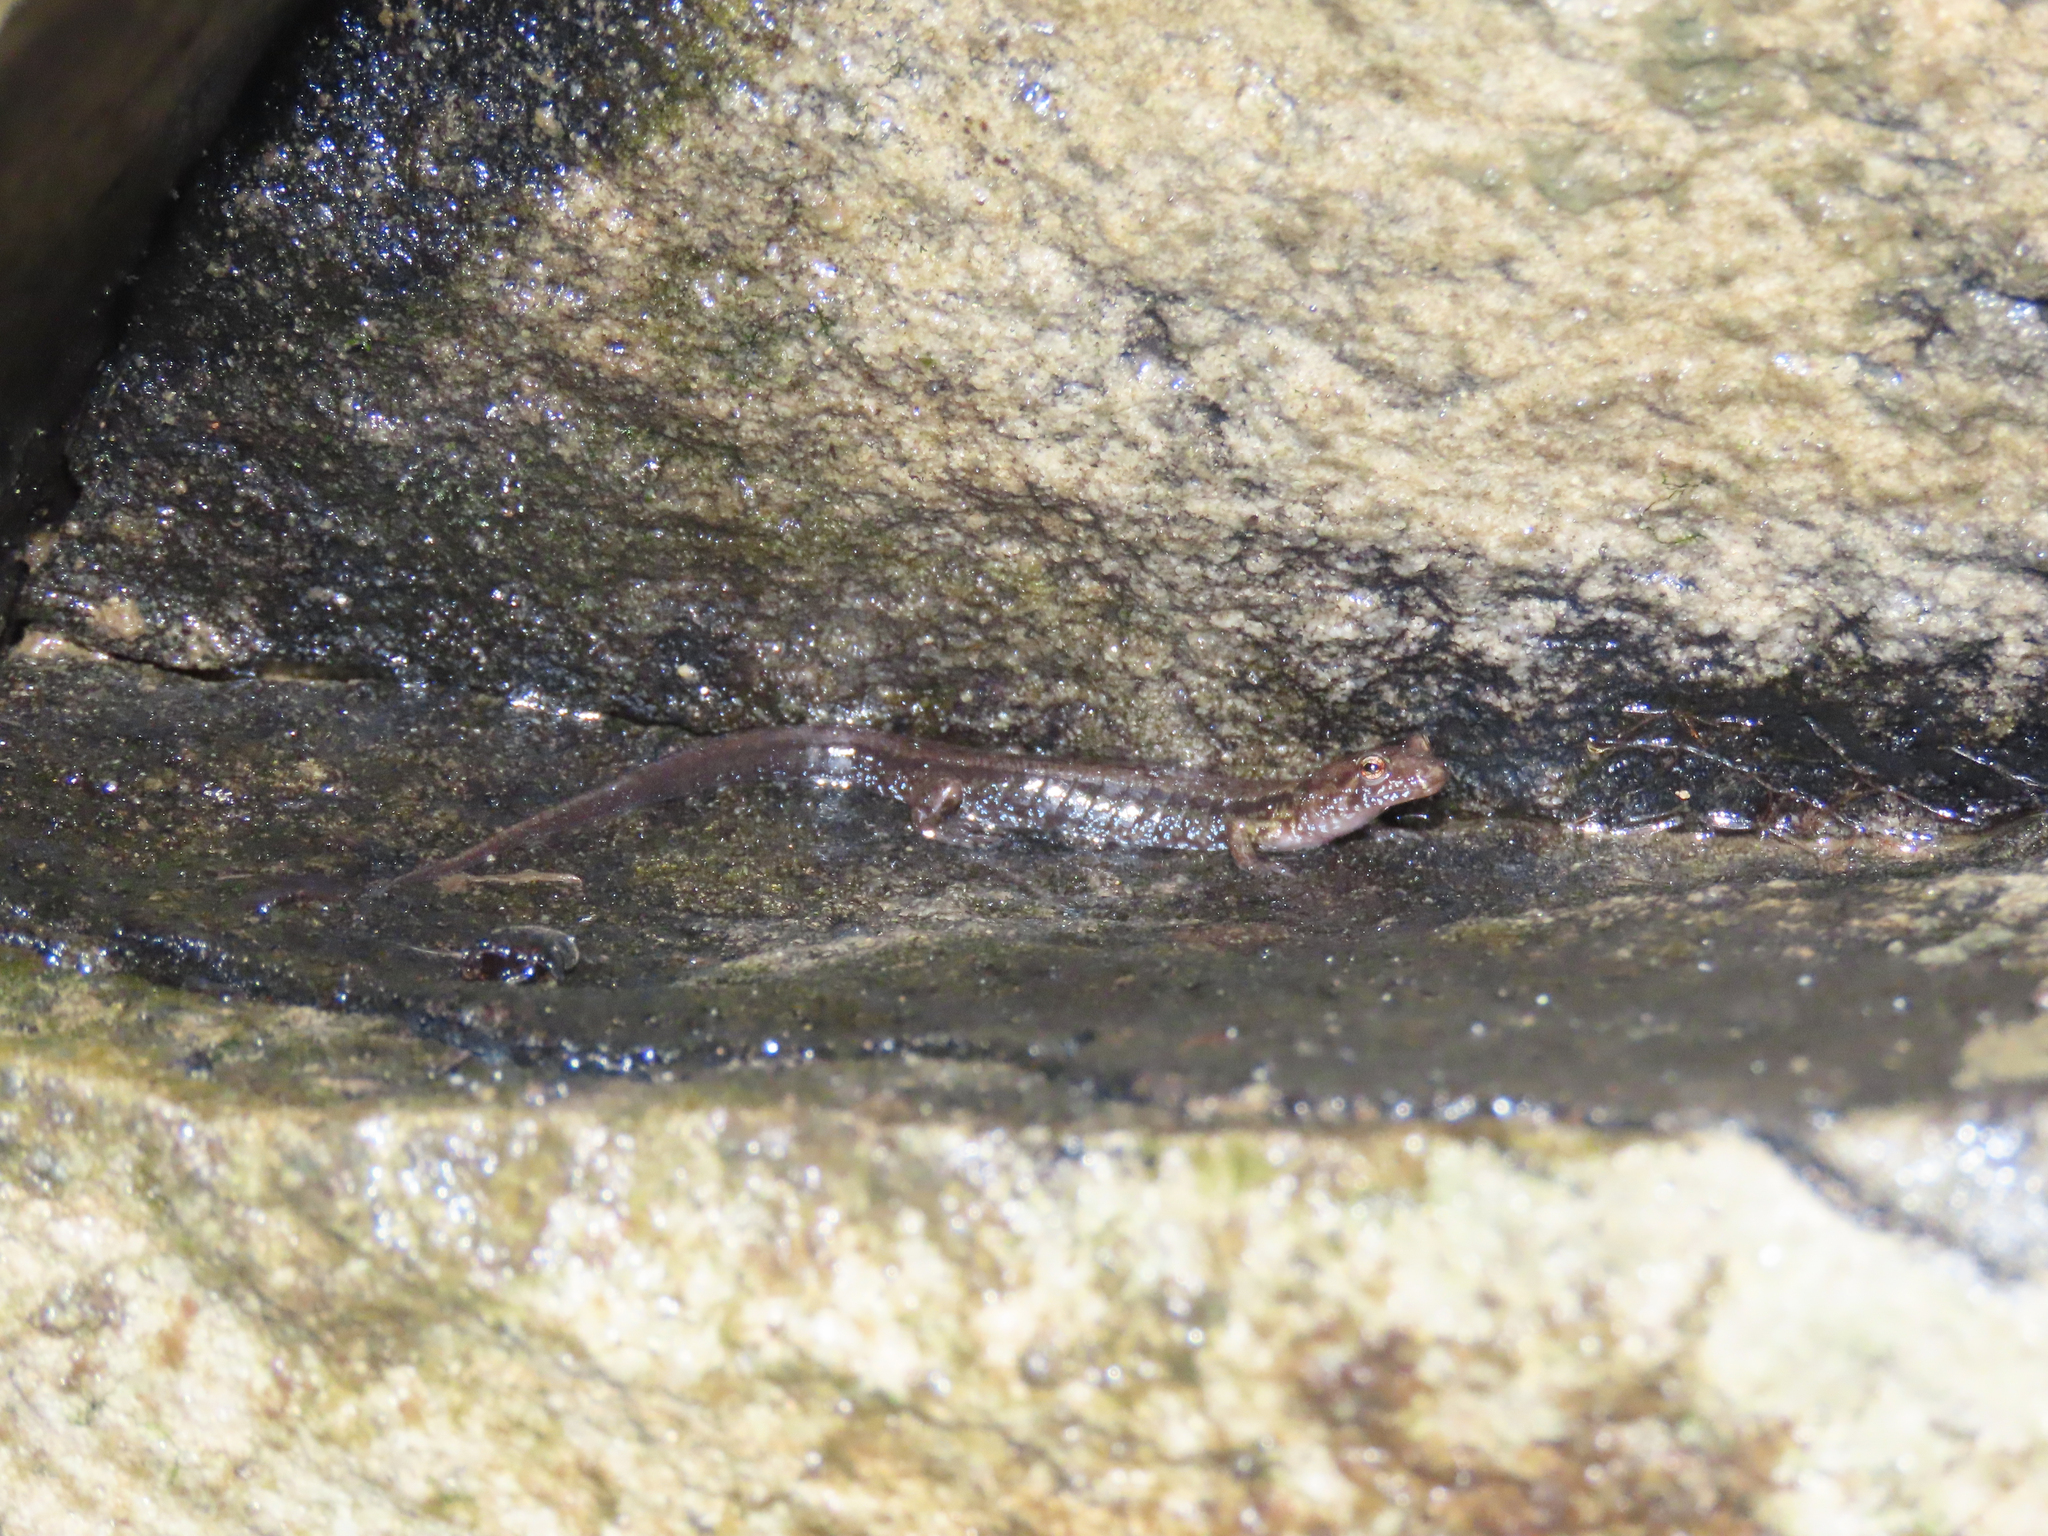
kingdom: Animalia
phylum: Chordata
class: Amphibia
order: Caudata
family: Plethodontidae
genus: Desmognathus
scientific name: Desmognathus ochrophaeus
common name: Allegheny mountain dusky salamander
